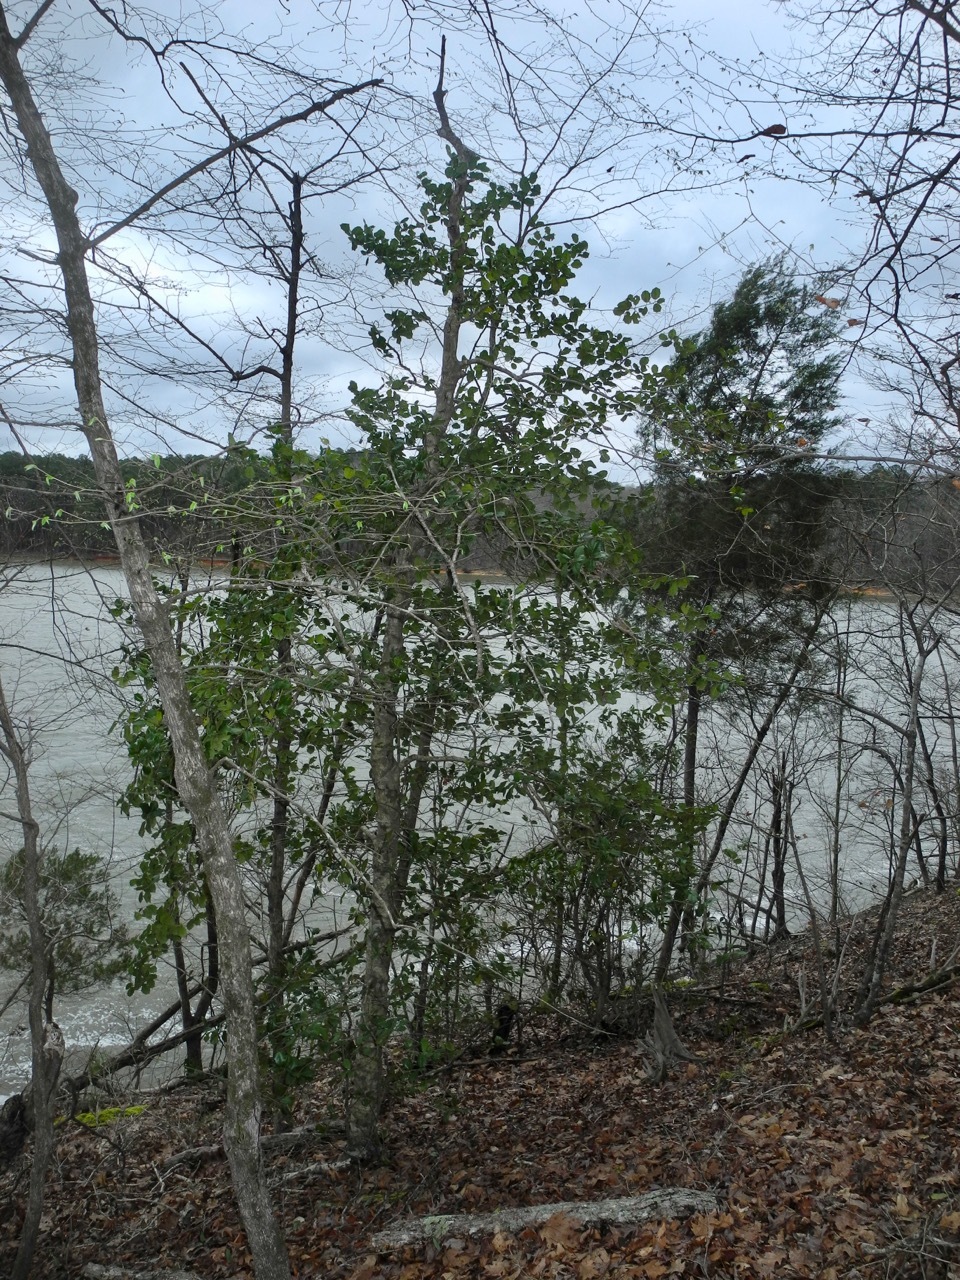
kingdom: Plantae
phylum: Tracheophyta
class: Pinopsida
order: Pinales
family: Cupressaceae
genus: Juniperus
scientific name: Juniperus virginiana
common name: Red juniper
